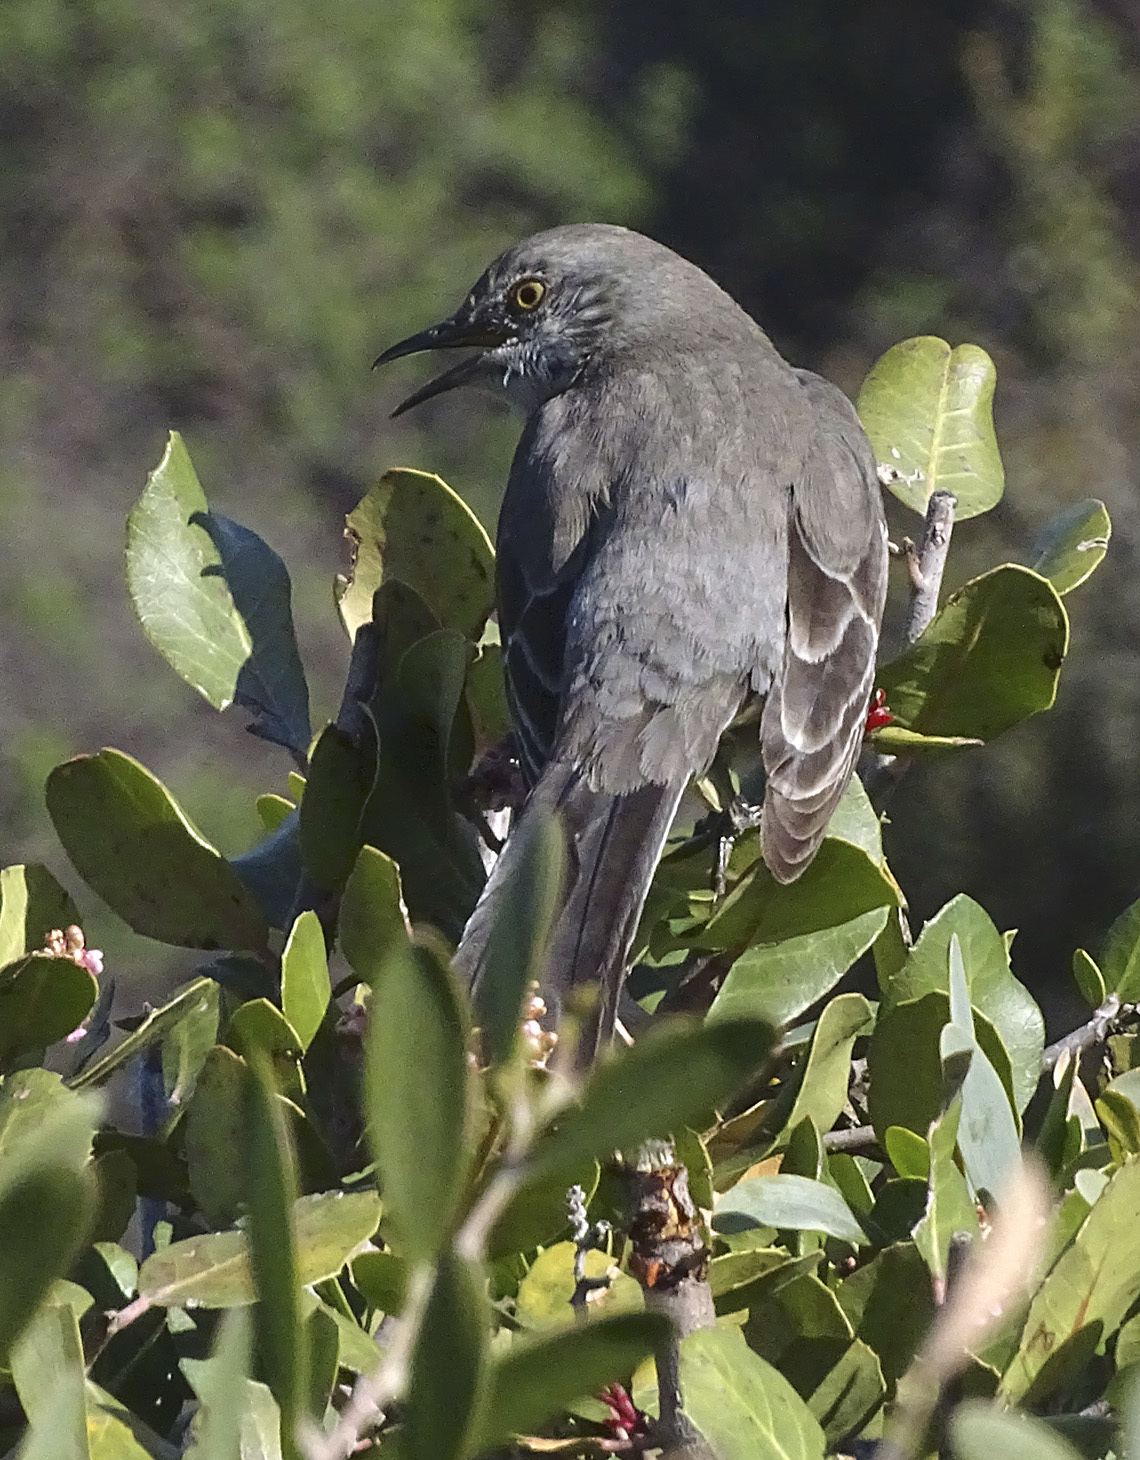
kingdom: Animalia
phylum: Chordata
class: Aves
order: Passeriformes
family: Mimidae
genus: Mimus
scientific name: Mimus polyglottos
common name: Northern mockingbird
